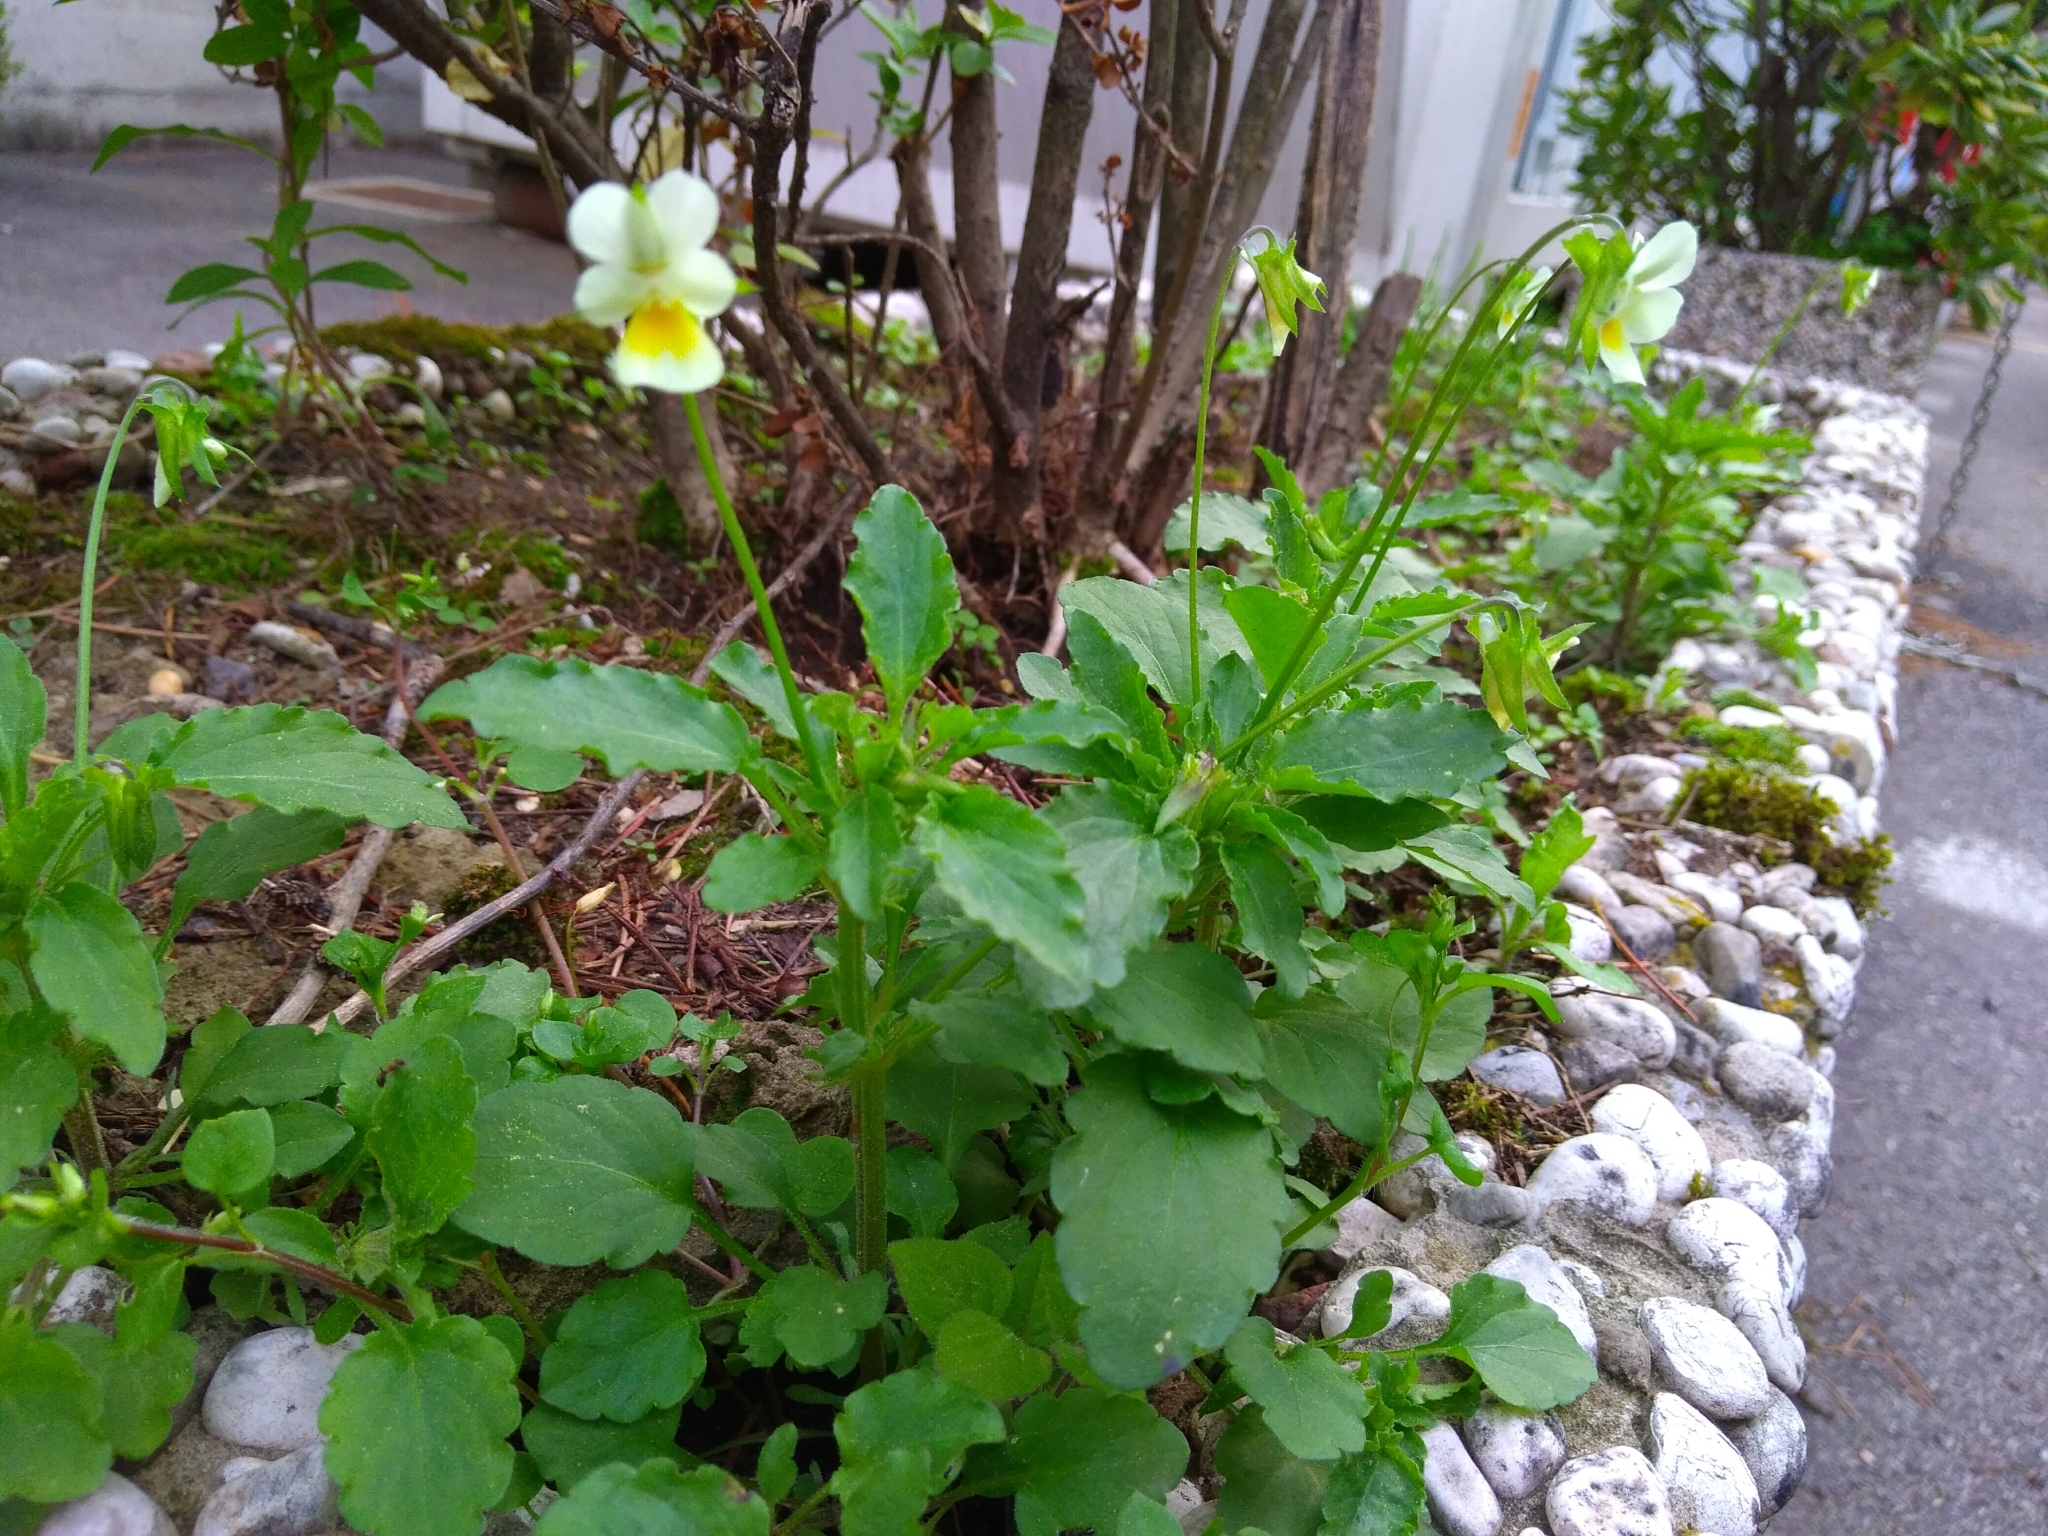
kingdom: Plantae
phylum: Tracheophyta
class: Magnoliopsida
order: Malpighiales
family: Violaceae
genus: Viola
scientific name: Viola arvensis
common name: Field pansy
